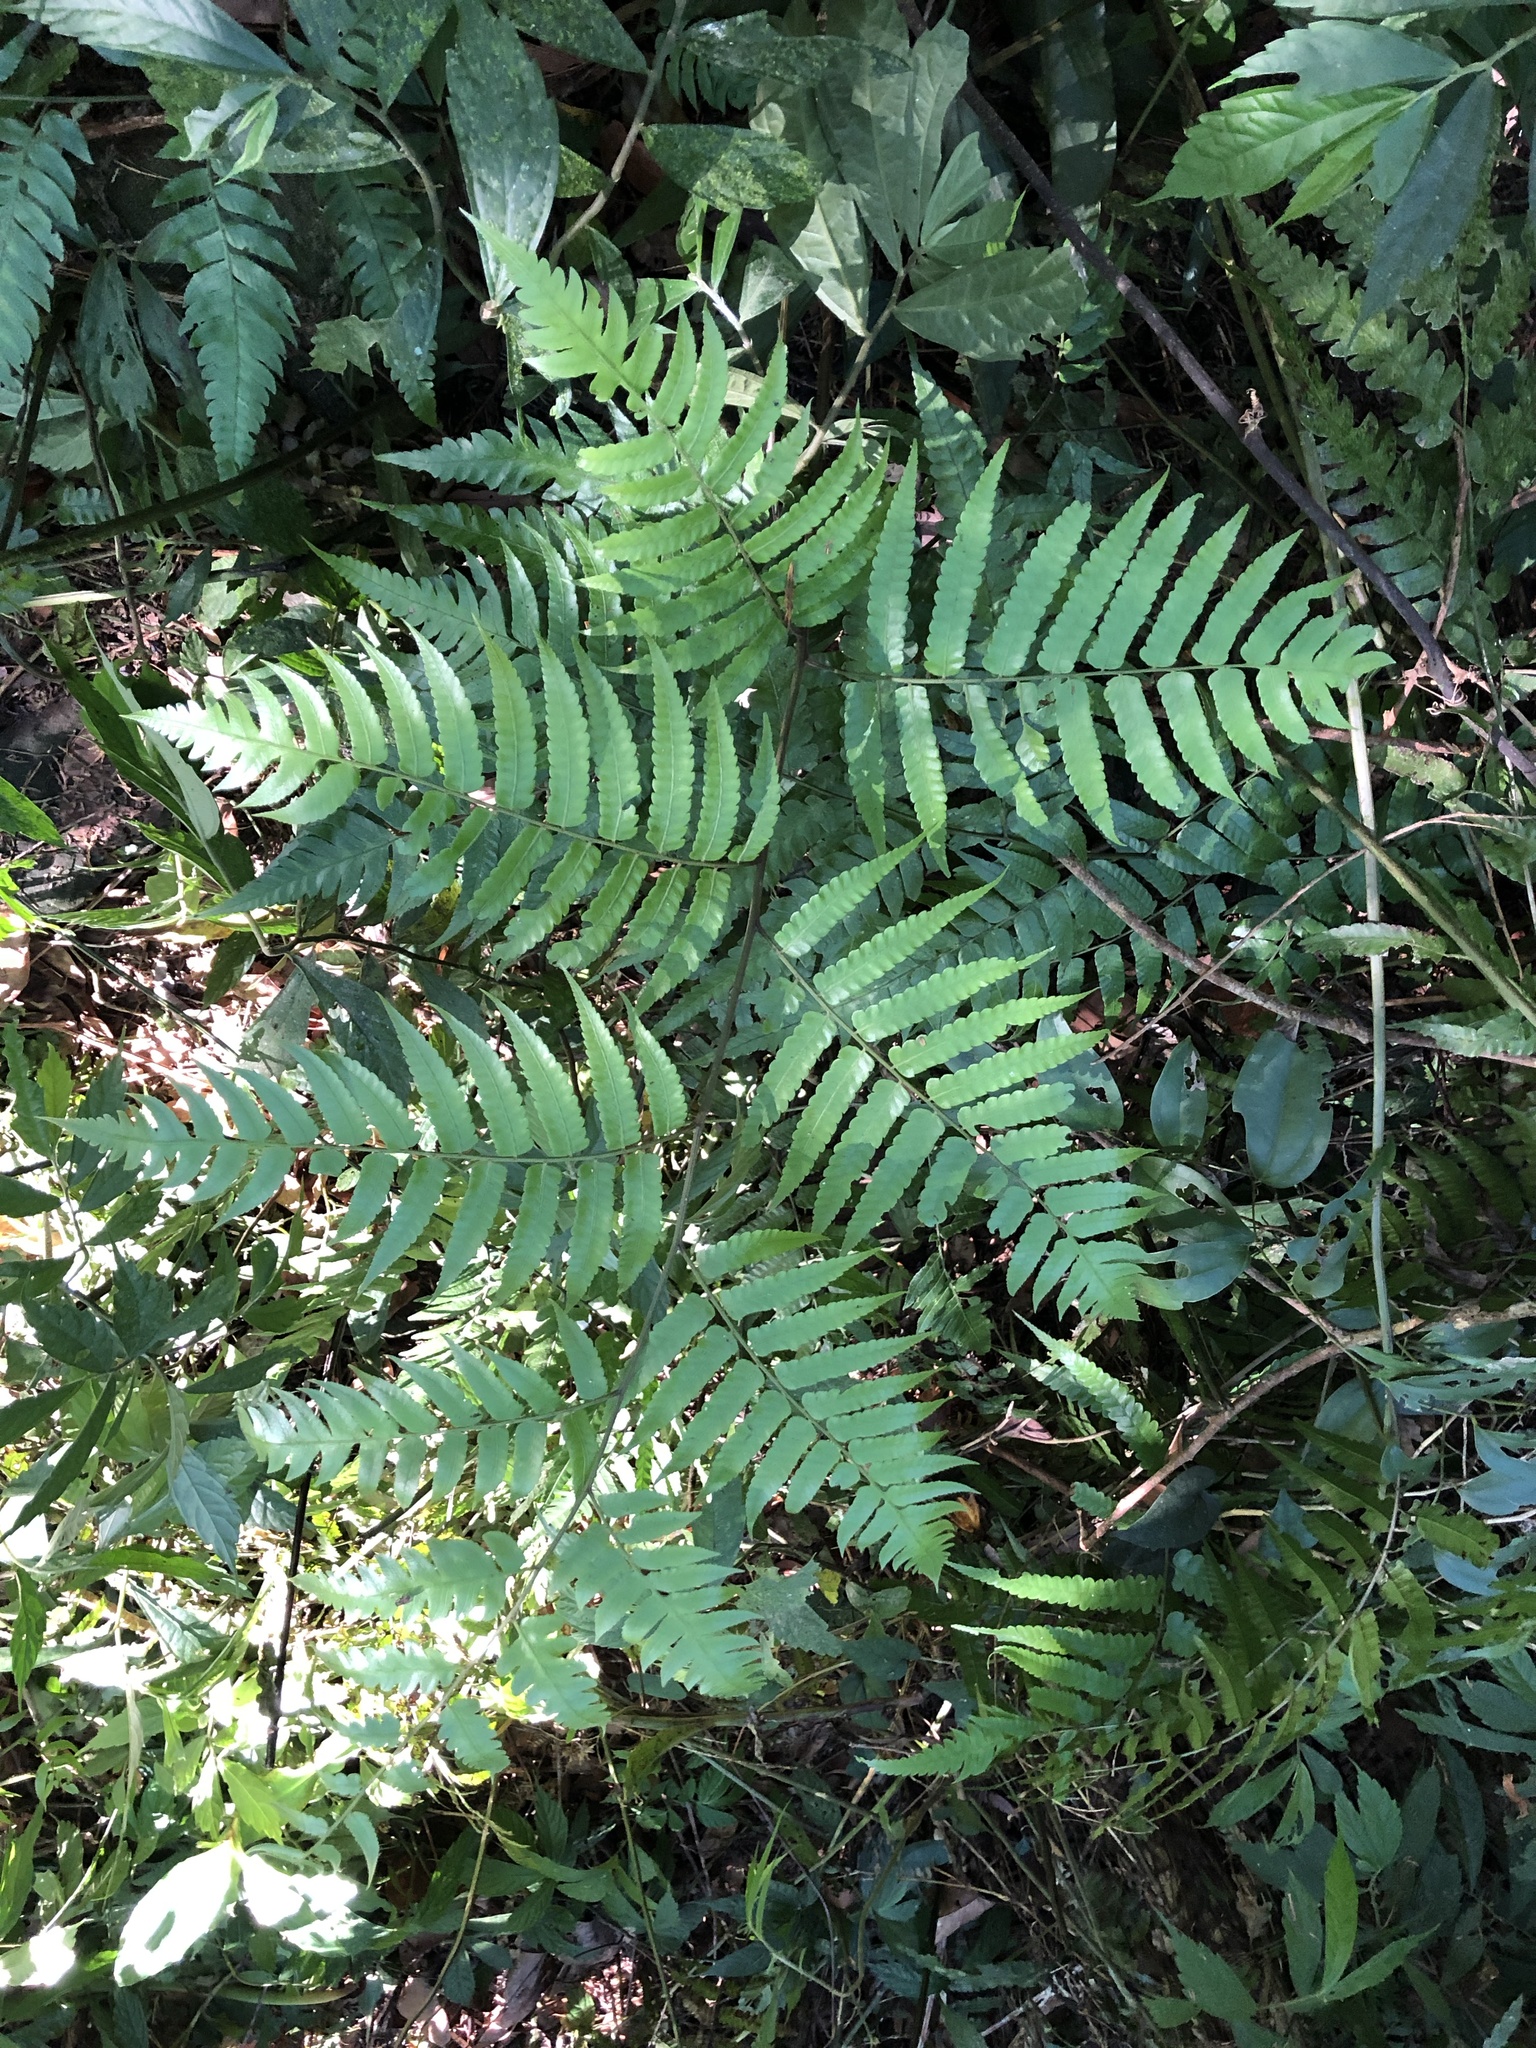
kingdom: Plantae
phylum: Tracheophyta
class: Polypodiopsida
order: Polypodiales
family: Athyriaceae
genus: Diplazium
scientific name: Diplazium dilatatum
